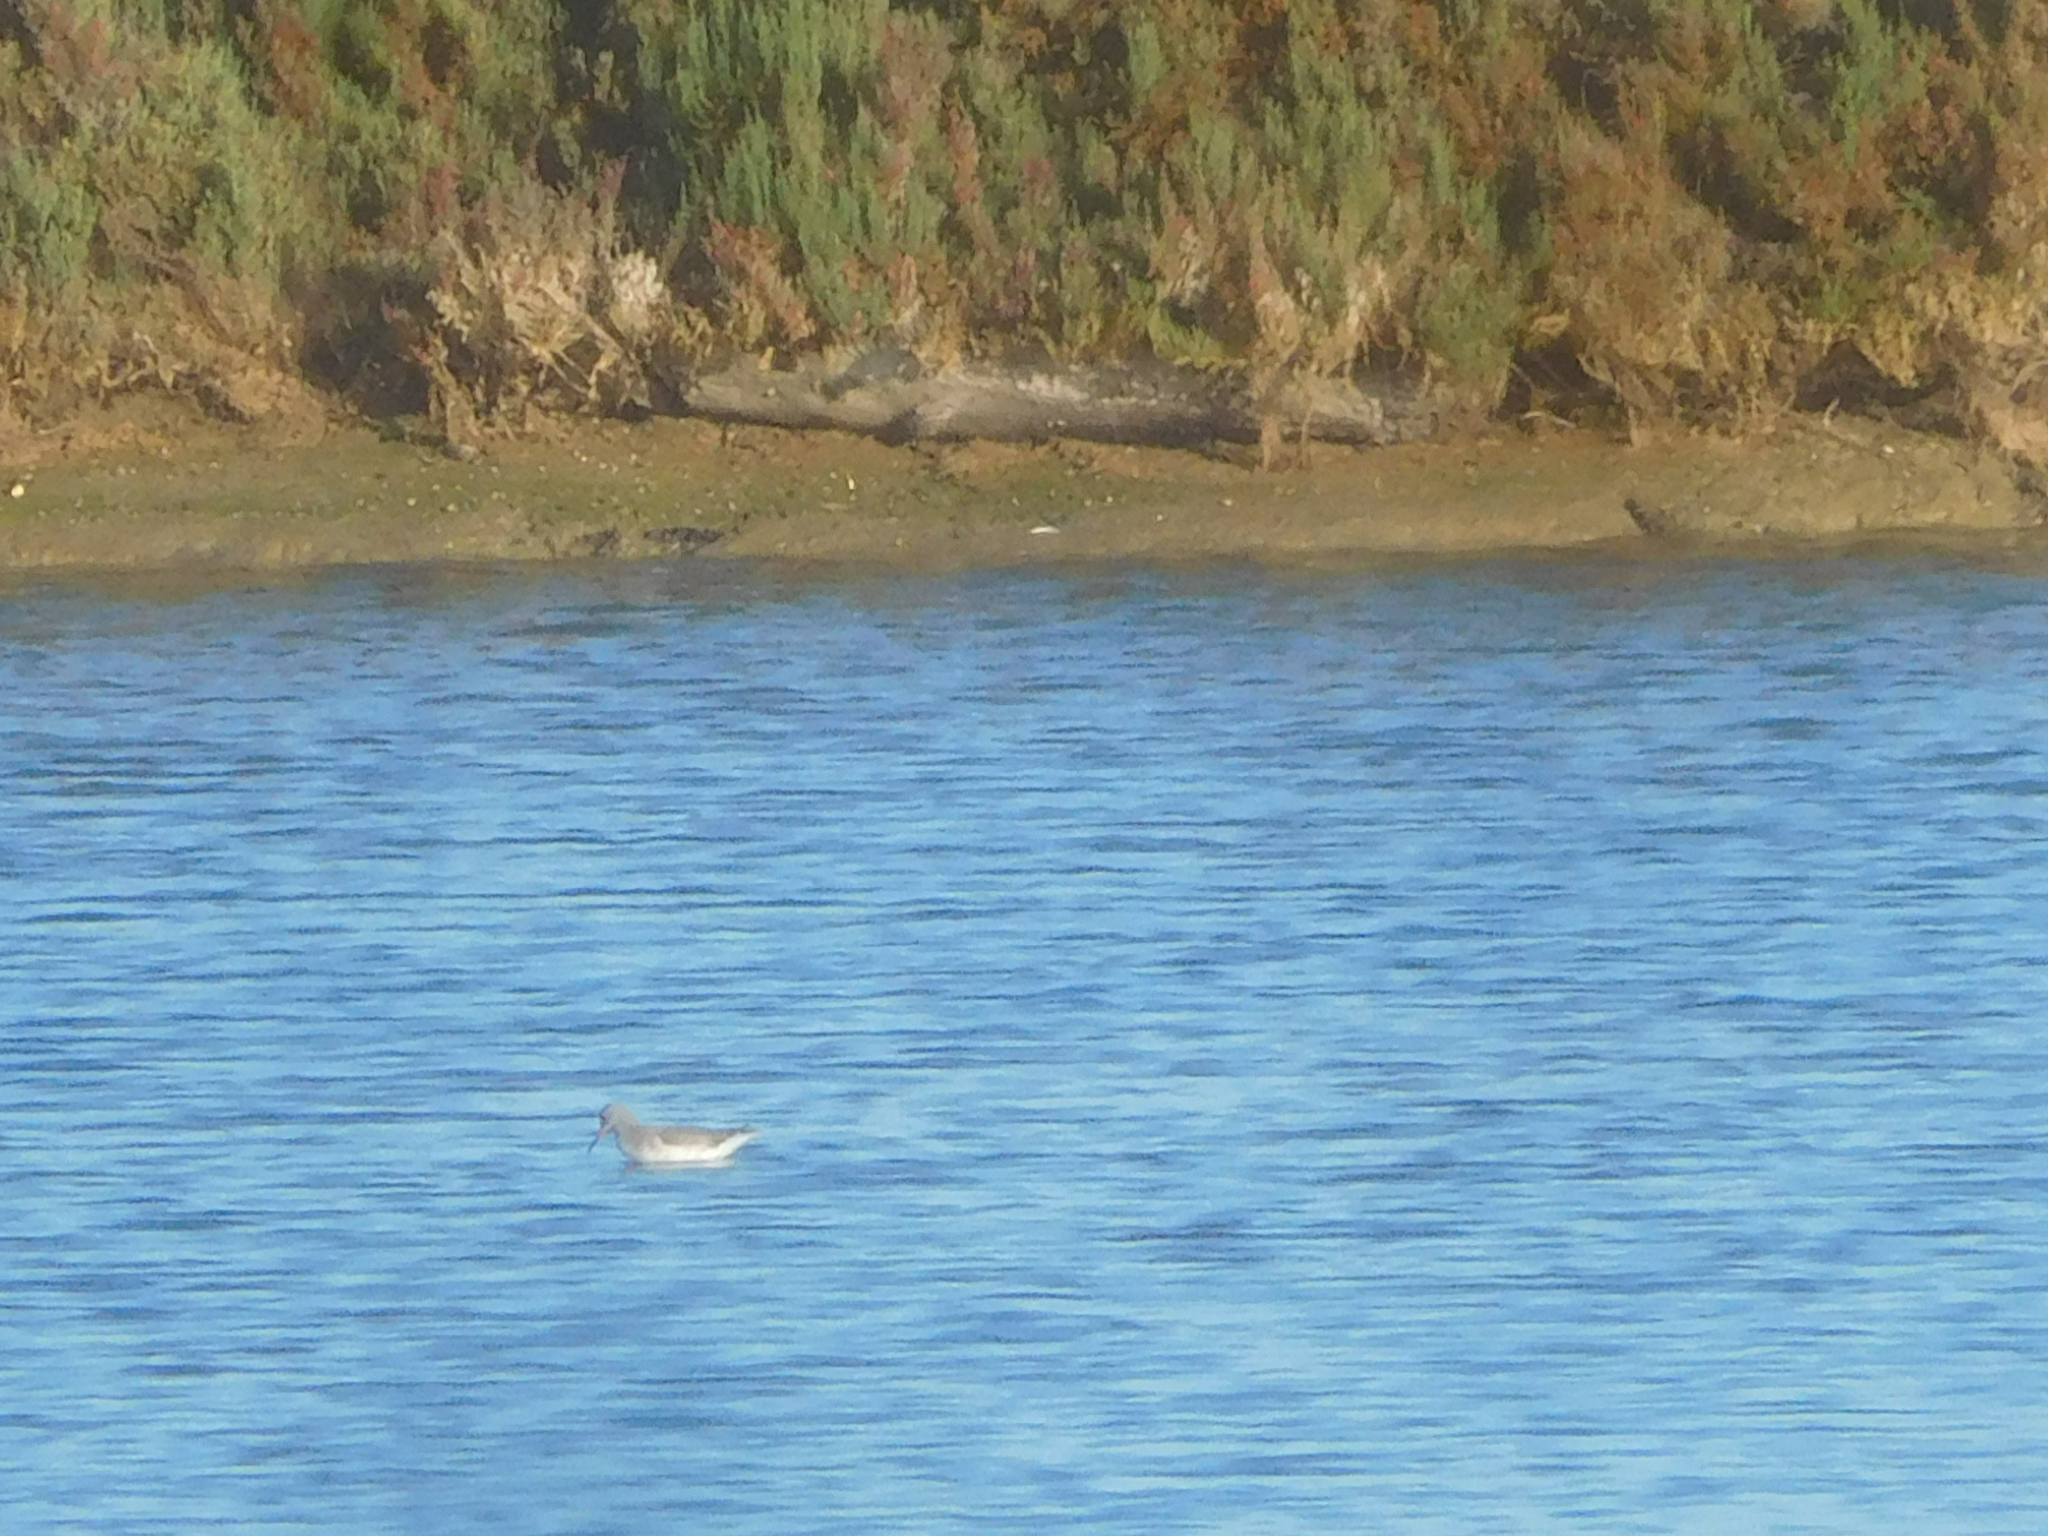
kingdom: Animalia
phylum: Chordata
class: Aves
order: Charadriiformes
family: Scolopacidae
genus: Tringa
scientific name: Tringa totanus
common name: Common redshank
